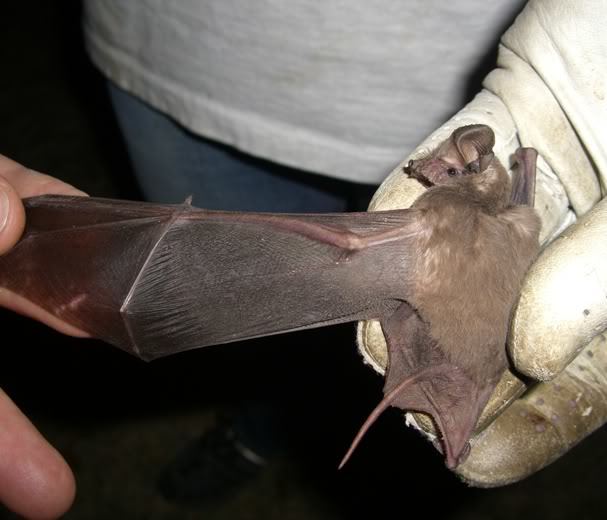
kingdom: Animalia
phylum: Chordata
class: Mammalia
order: Chiroptera
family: Molossidae
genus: Tadarida
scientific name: Tadarida brasiliensis
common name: Mexican free-tailed bat
